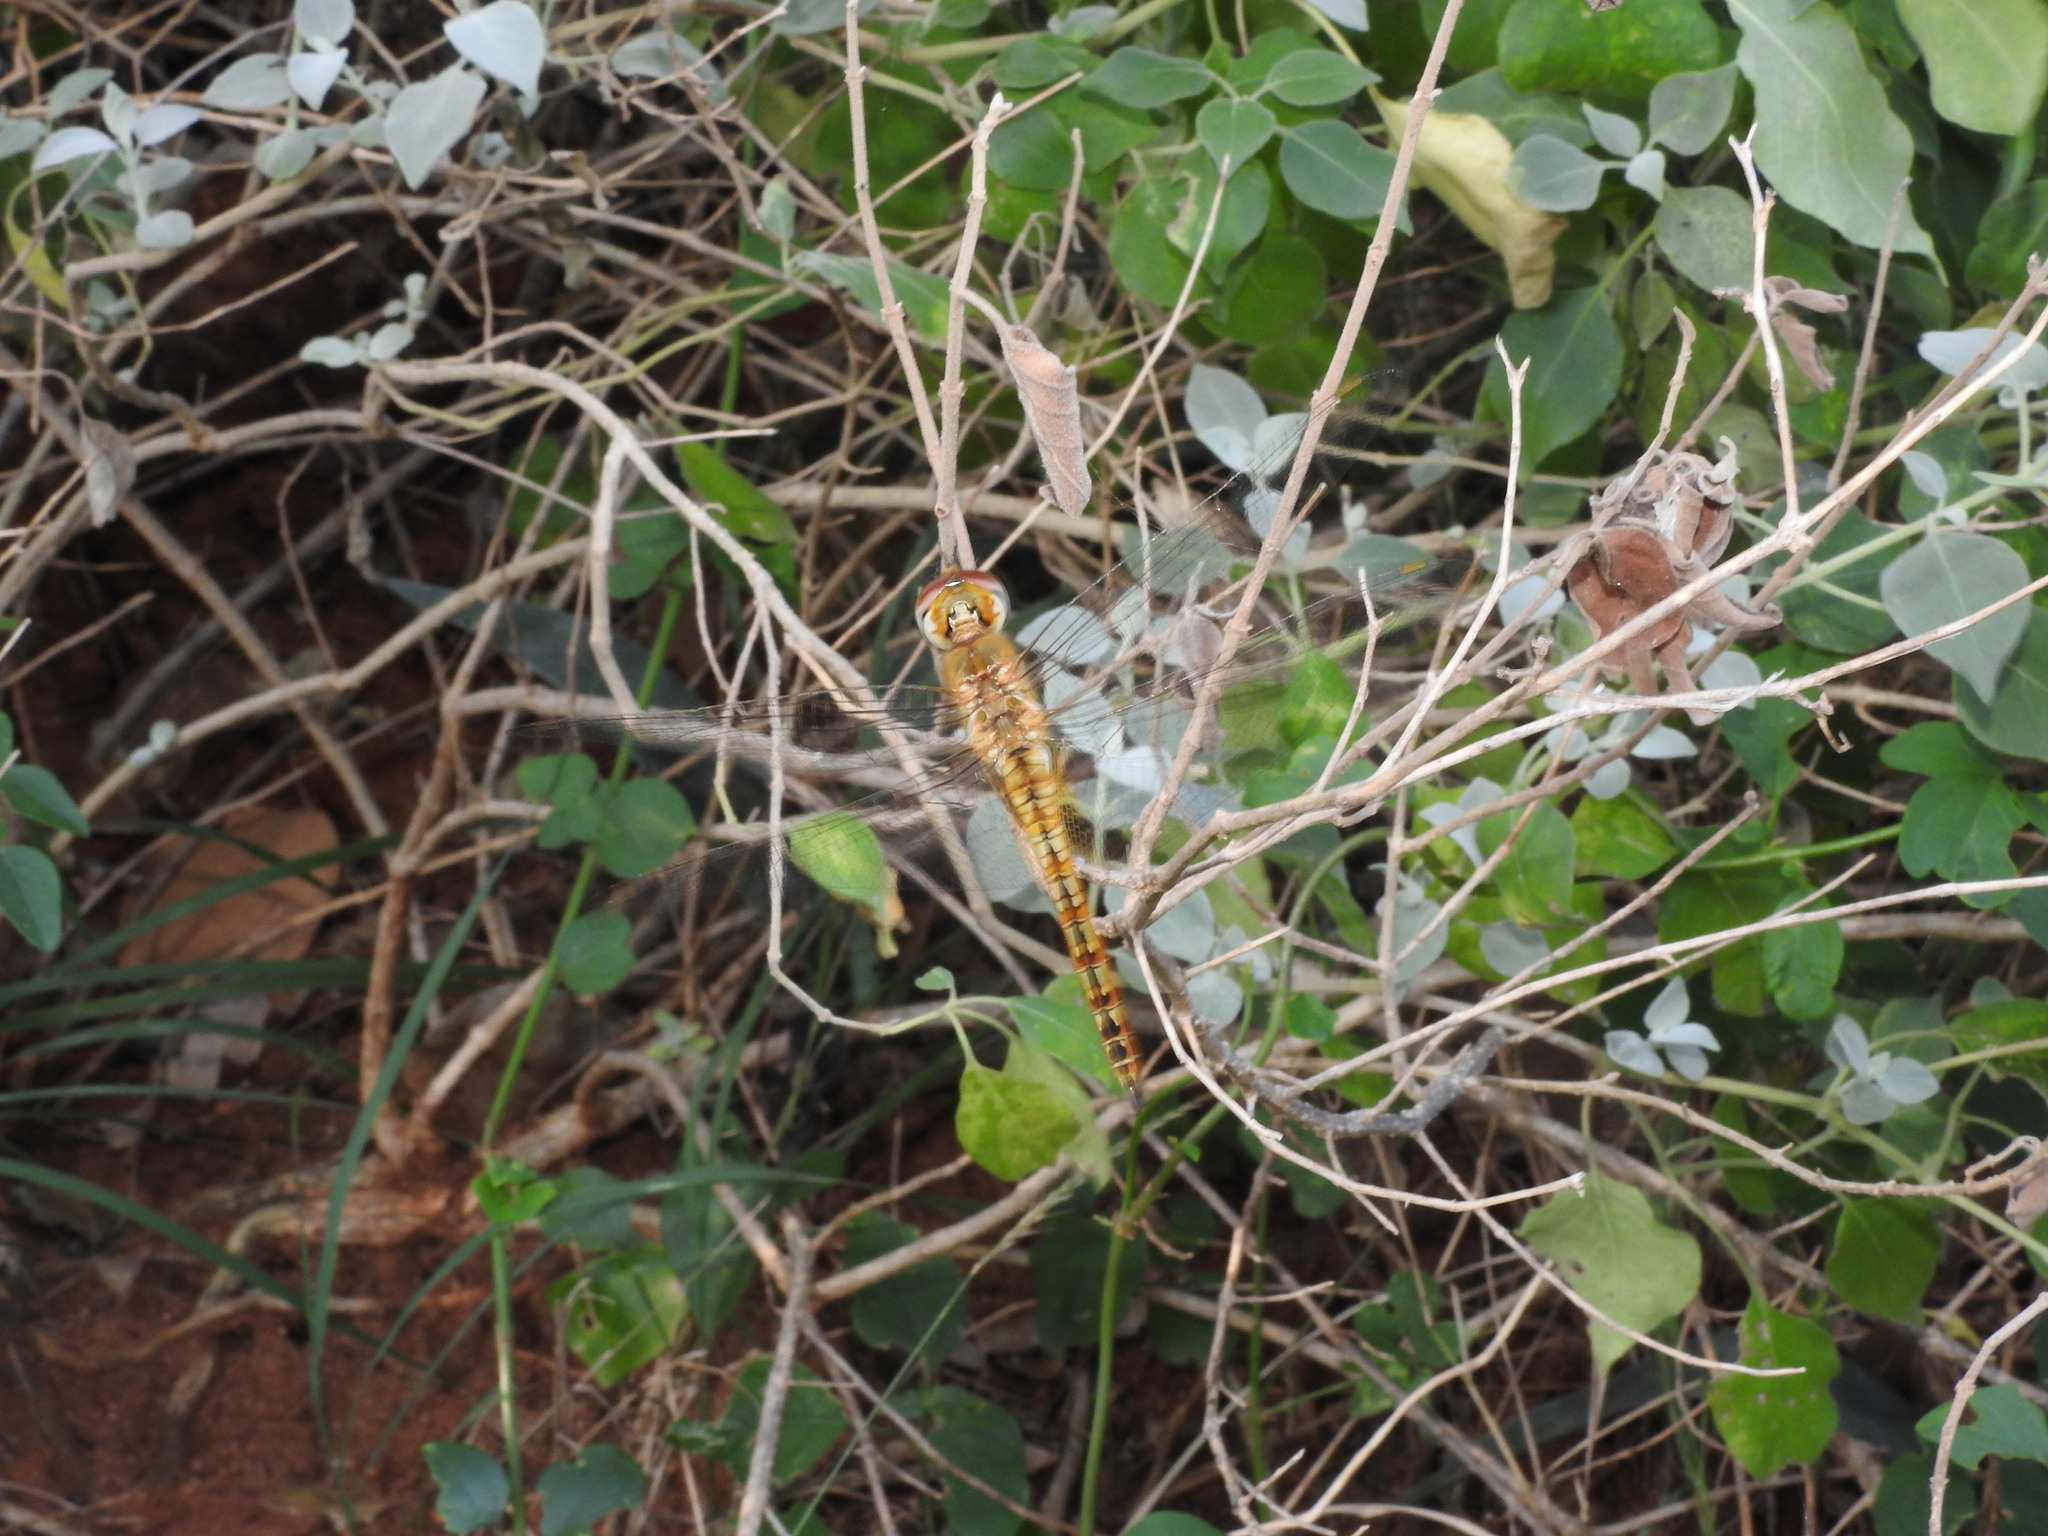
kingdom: Animalia
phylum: Arthropoda
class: Insecta
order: Odonata
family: Libellulidae
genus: Pantala
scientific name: Pantala flavescens
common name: Wandering glider
